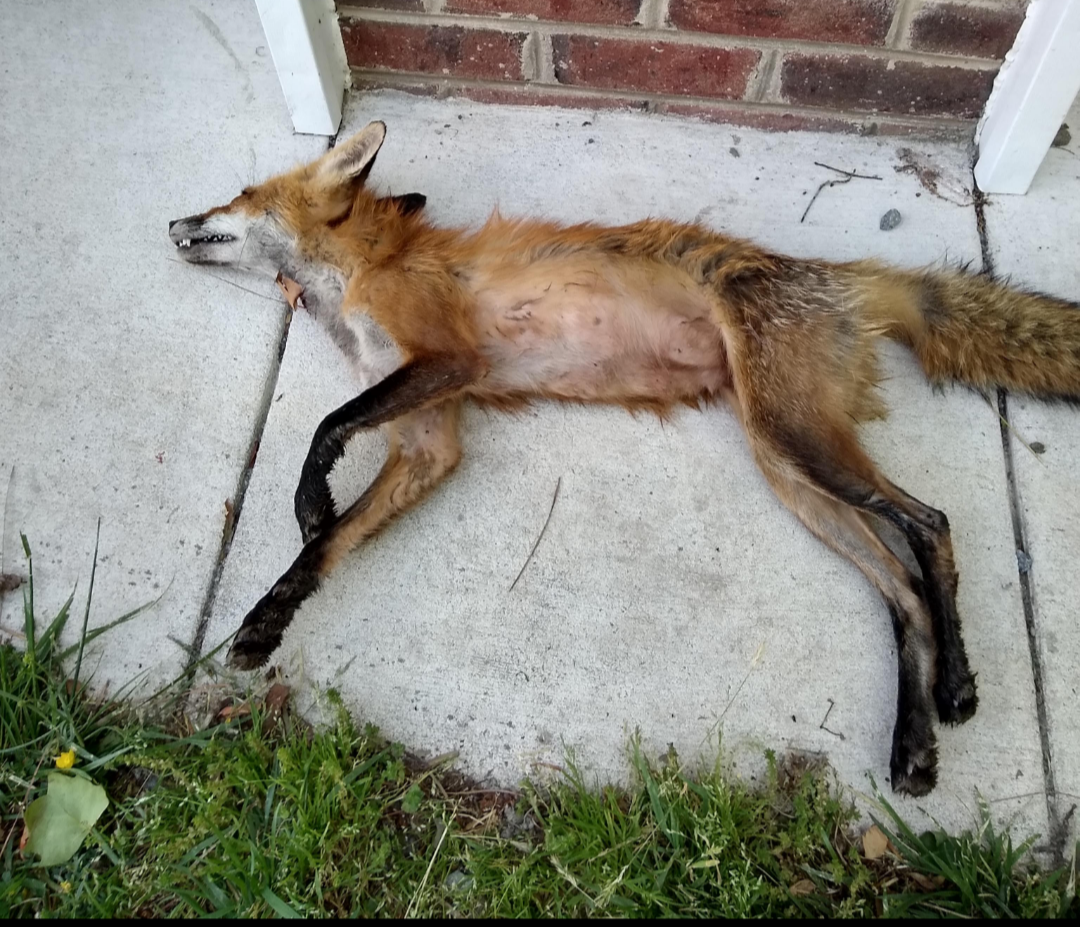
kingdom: Animalia
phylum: Chordata
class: Mammalia
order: Carnivora
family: Canidae
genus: Vulpes
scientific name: Vulpes vulpes
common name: Red fox
